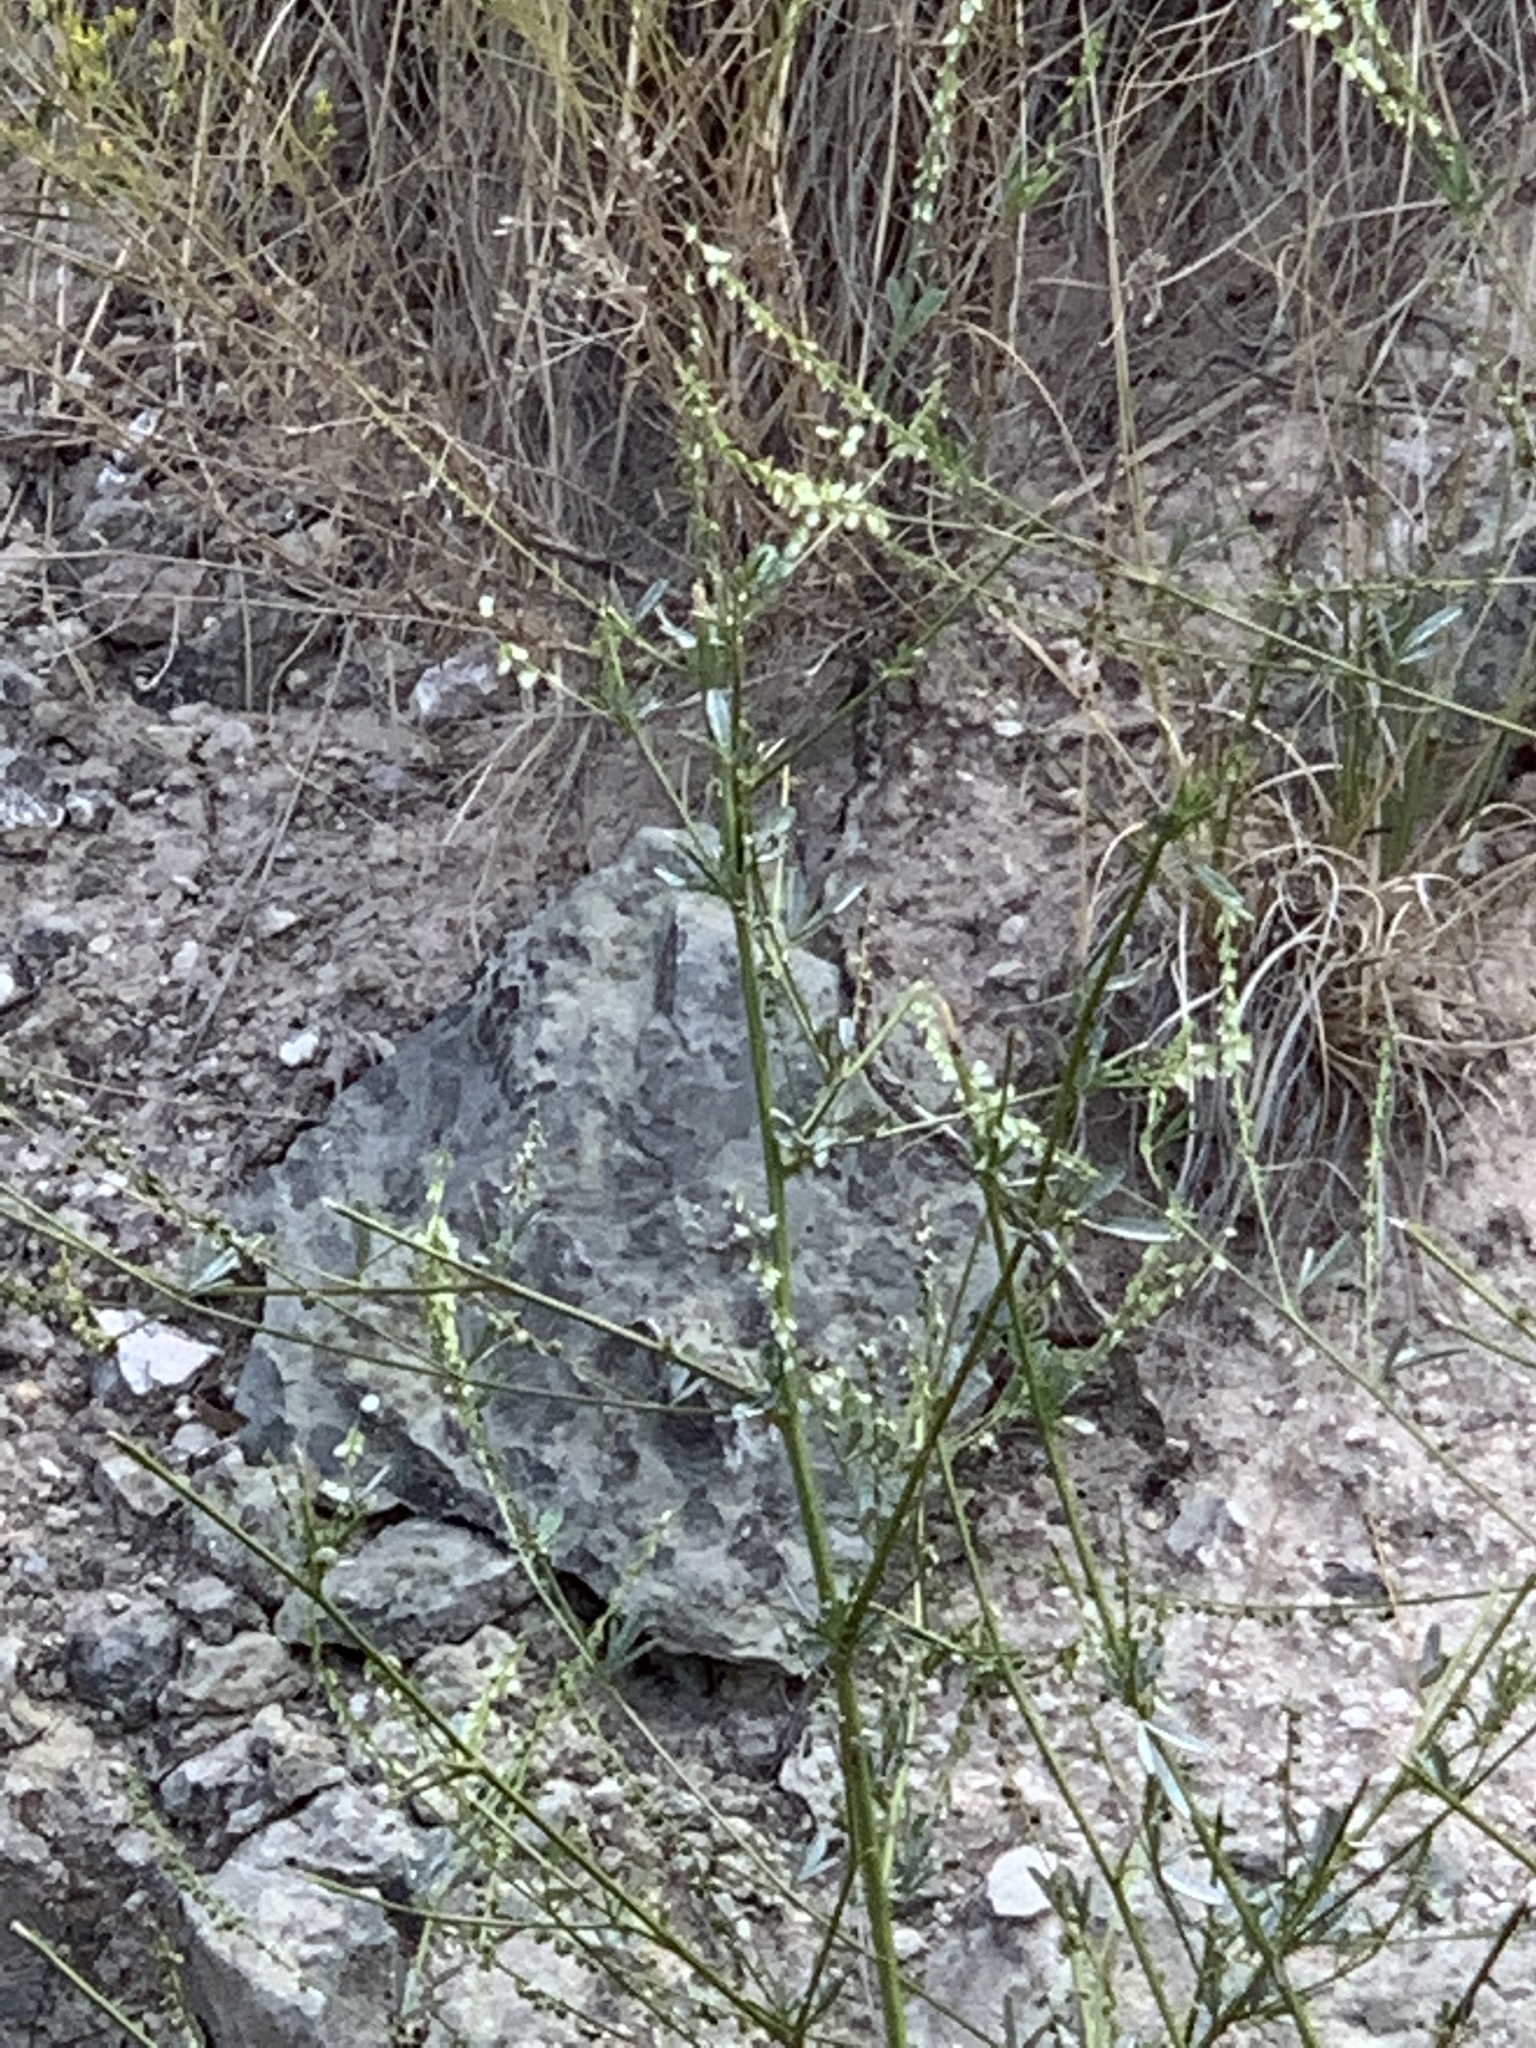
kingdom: Plantae
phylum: Tracheophyta
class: Magnoliopsida
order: Fabales
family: Fabaceae
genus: Melilotus
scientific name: Melilotus albus
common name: White melilot
